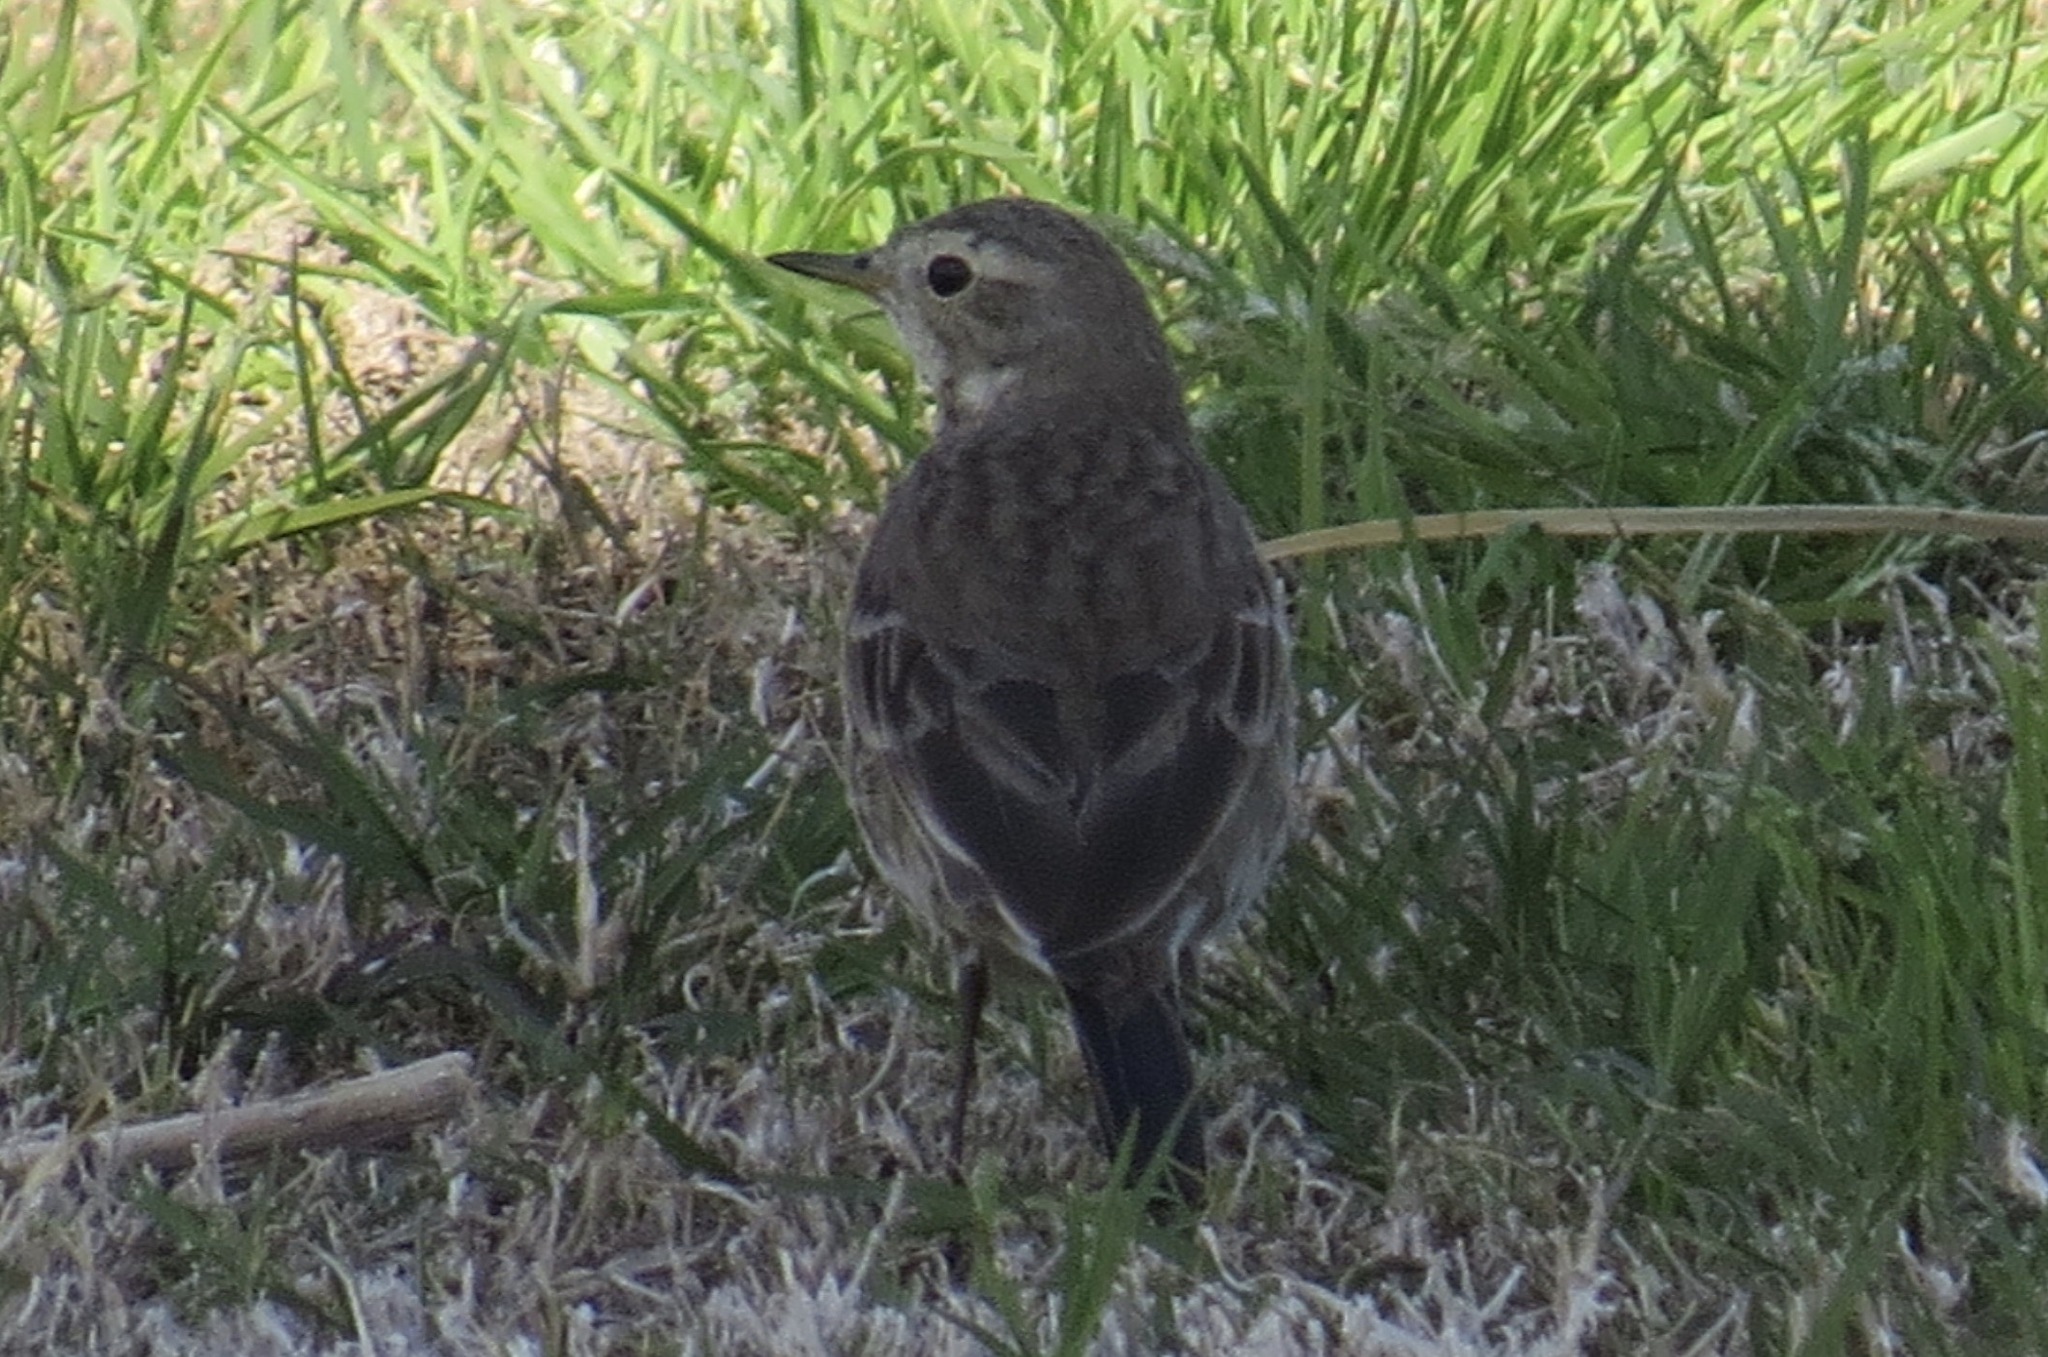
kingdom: Animalia
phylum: Chordata
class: Aves
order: Passeriformes
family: Motacillidae
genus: Anthus
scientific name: Anthus rubescens
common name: Buff-bellied pipit
